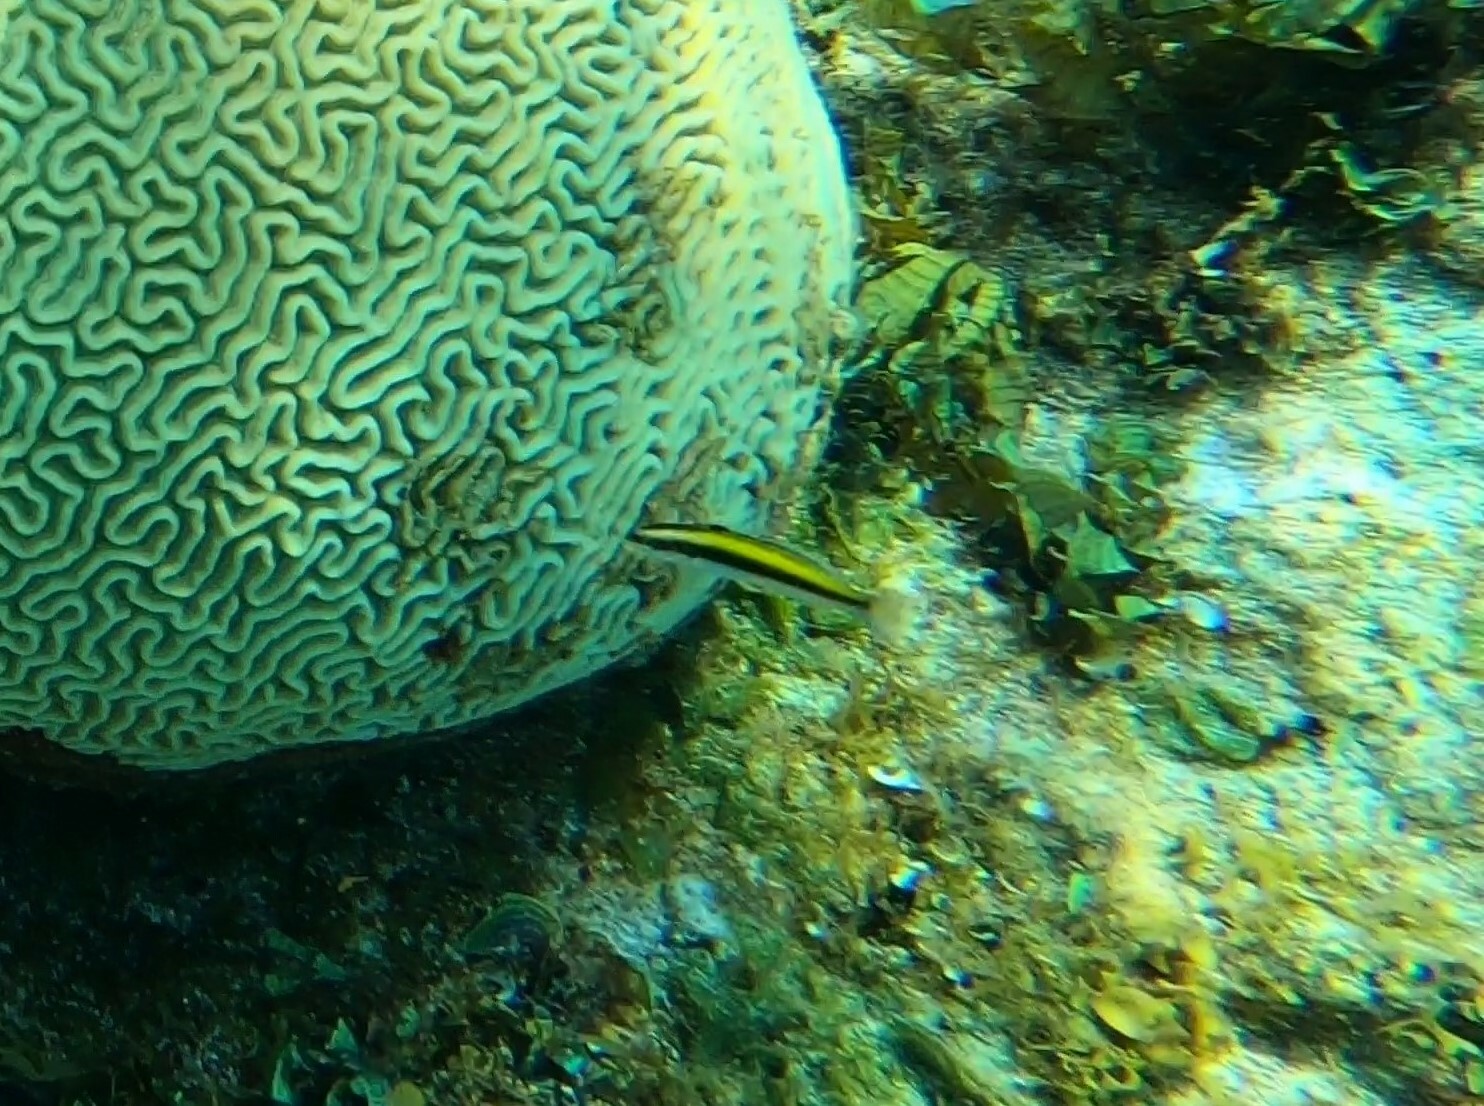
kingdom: Animalia
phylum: Chordata
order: Perciformes
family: Labridae
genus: Thalassoma
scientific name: Thalassoma bifasciatum
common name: Bluehead wrasse
